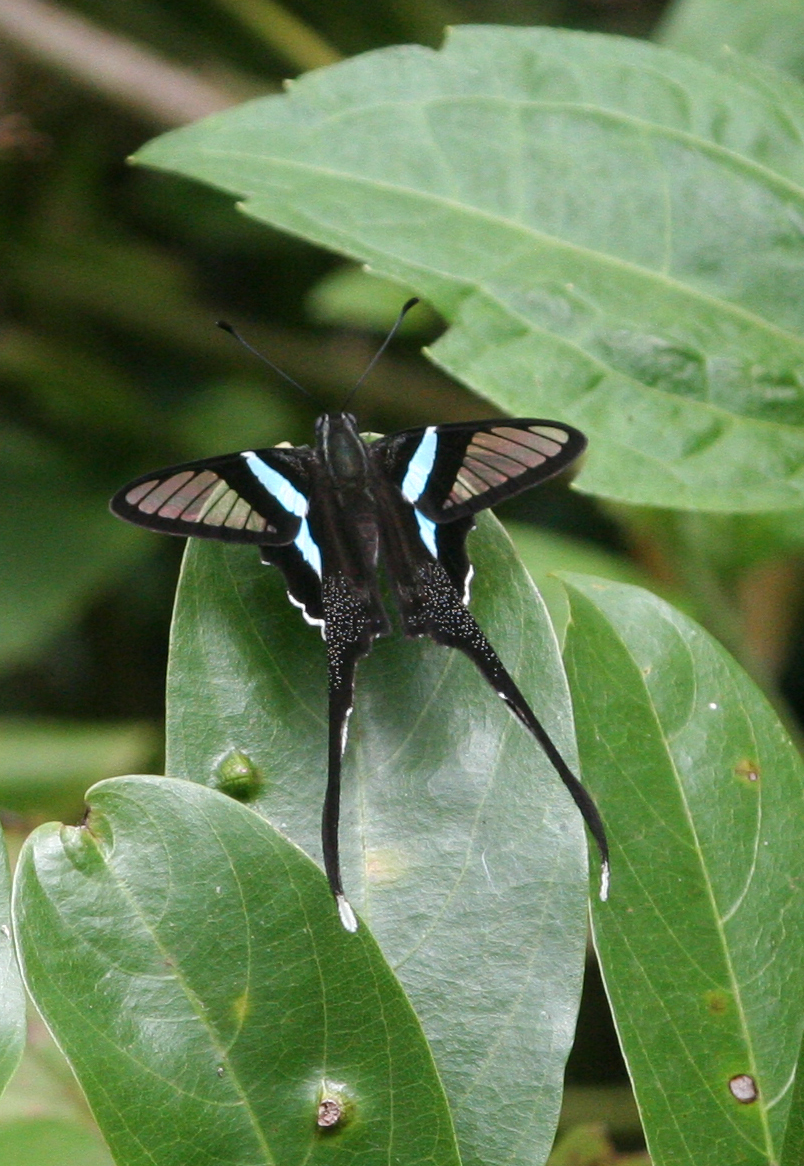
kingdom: Animalia
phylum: Arthropoda
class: Insecta
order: Lepidoptera
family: Papilionidae
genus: Lamproptera
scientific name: Lamproptera meges
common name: Green dragontail
